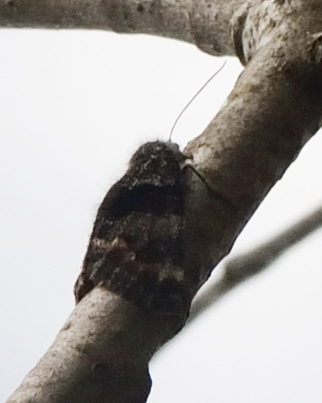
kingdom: Animalia
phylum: Arthropoda
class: Insecta
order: Lepidoptera
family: Geometridae
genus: Archiearis
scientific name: Archiearis notha
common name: Light orange underwing
